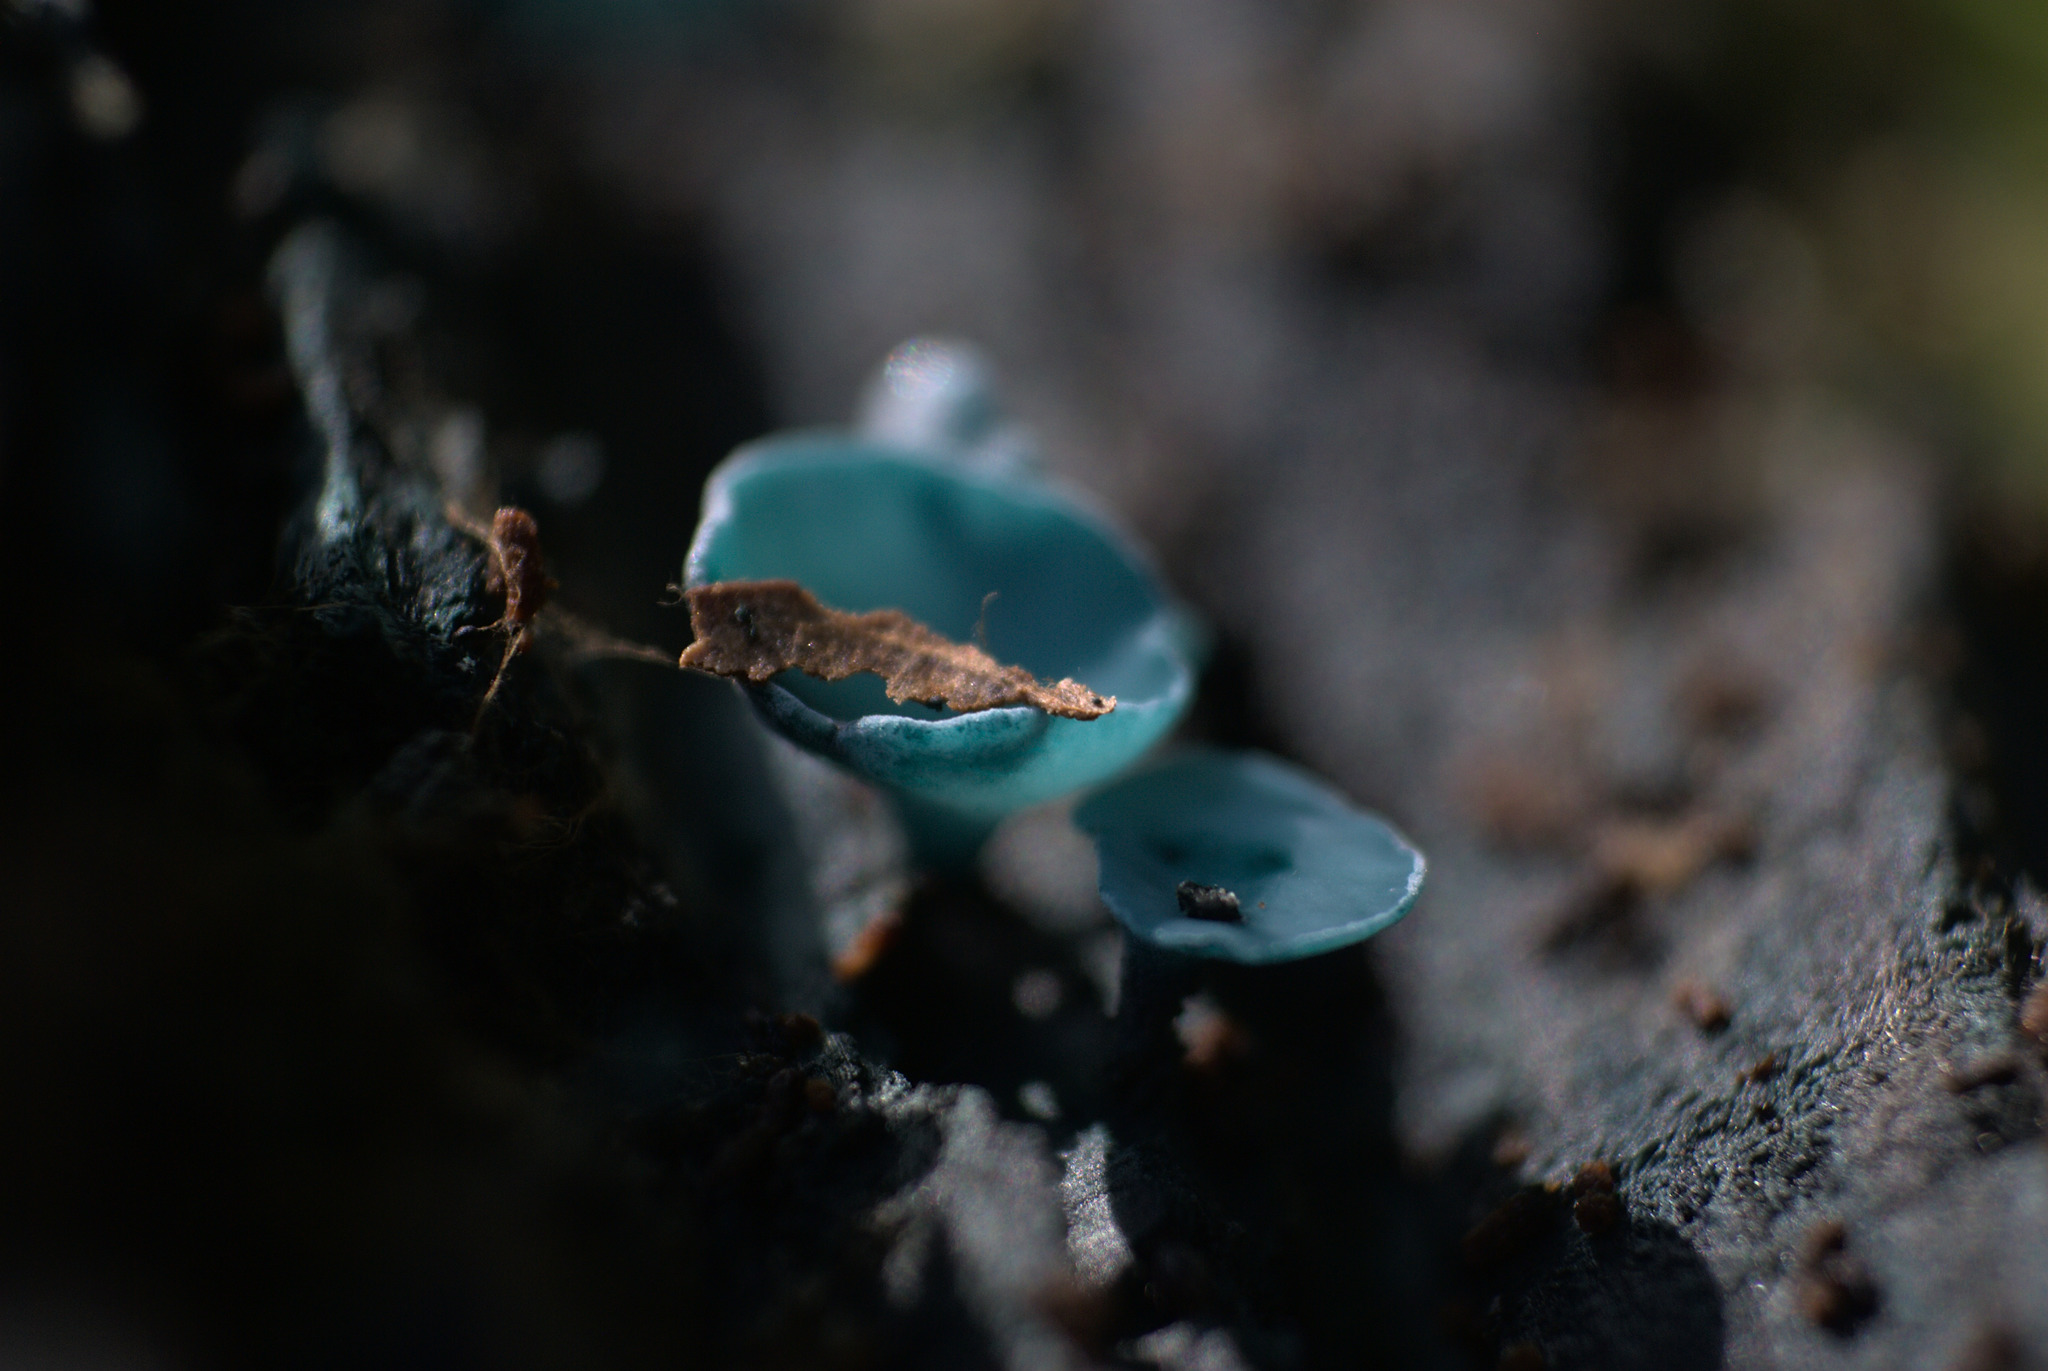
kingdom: Fungi
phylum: Ascomycota
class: Leotiomycetes
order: Helotiales
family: Chlorociboriaceae
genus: Chlorociboria
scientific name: Chlorociboria aeruginascens
